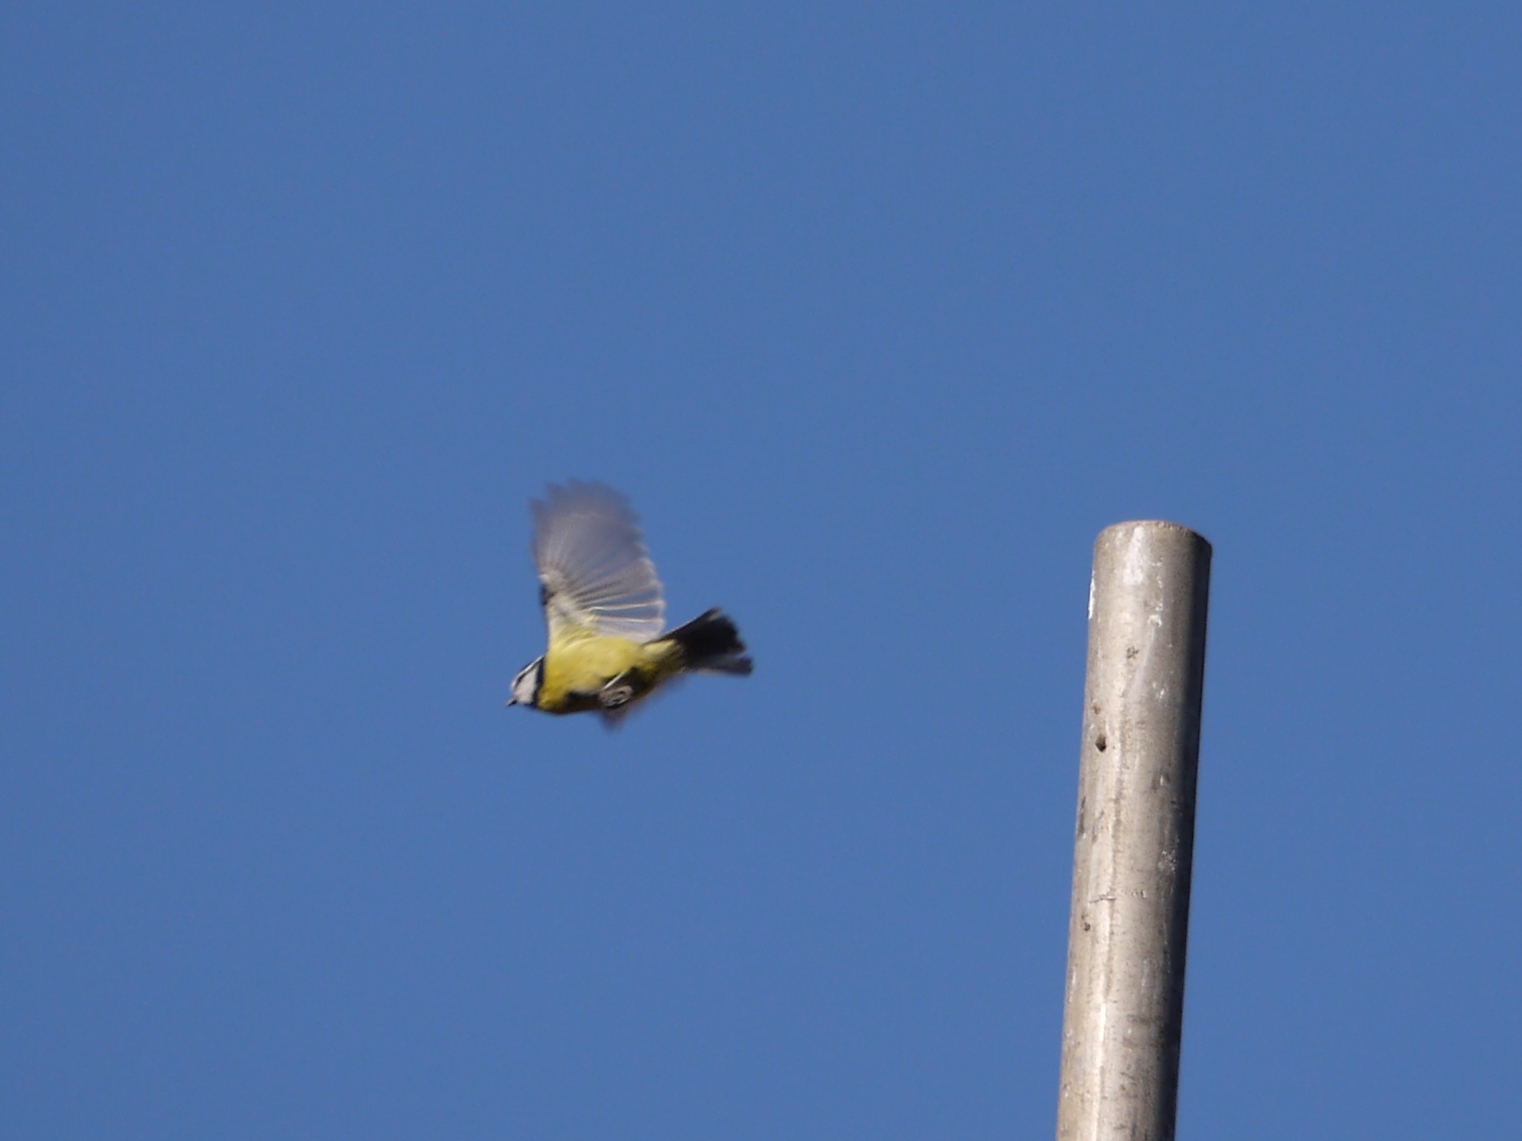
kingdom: Animalia
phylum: Chordata
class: Aves
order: Passeriformes
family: Paridae
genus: Cyanistes
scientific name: Cyanistes caeruleus
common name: Eurasian blue tit
